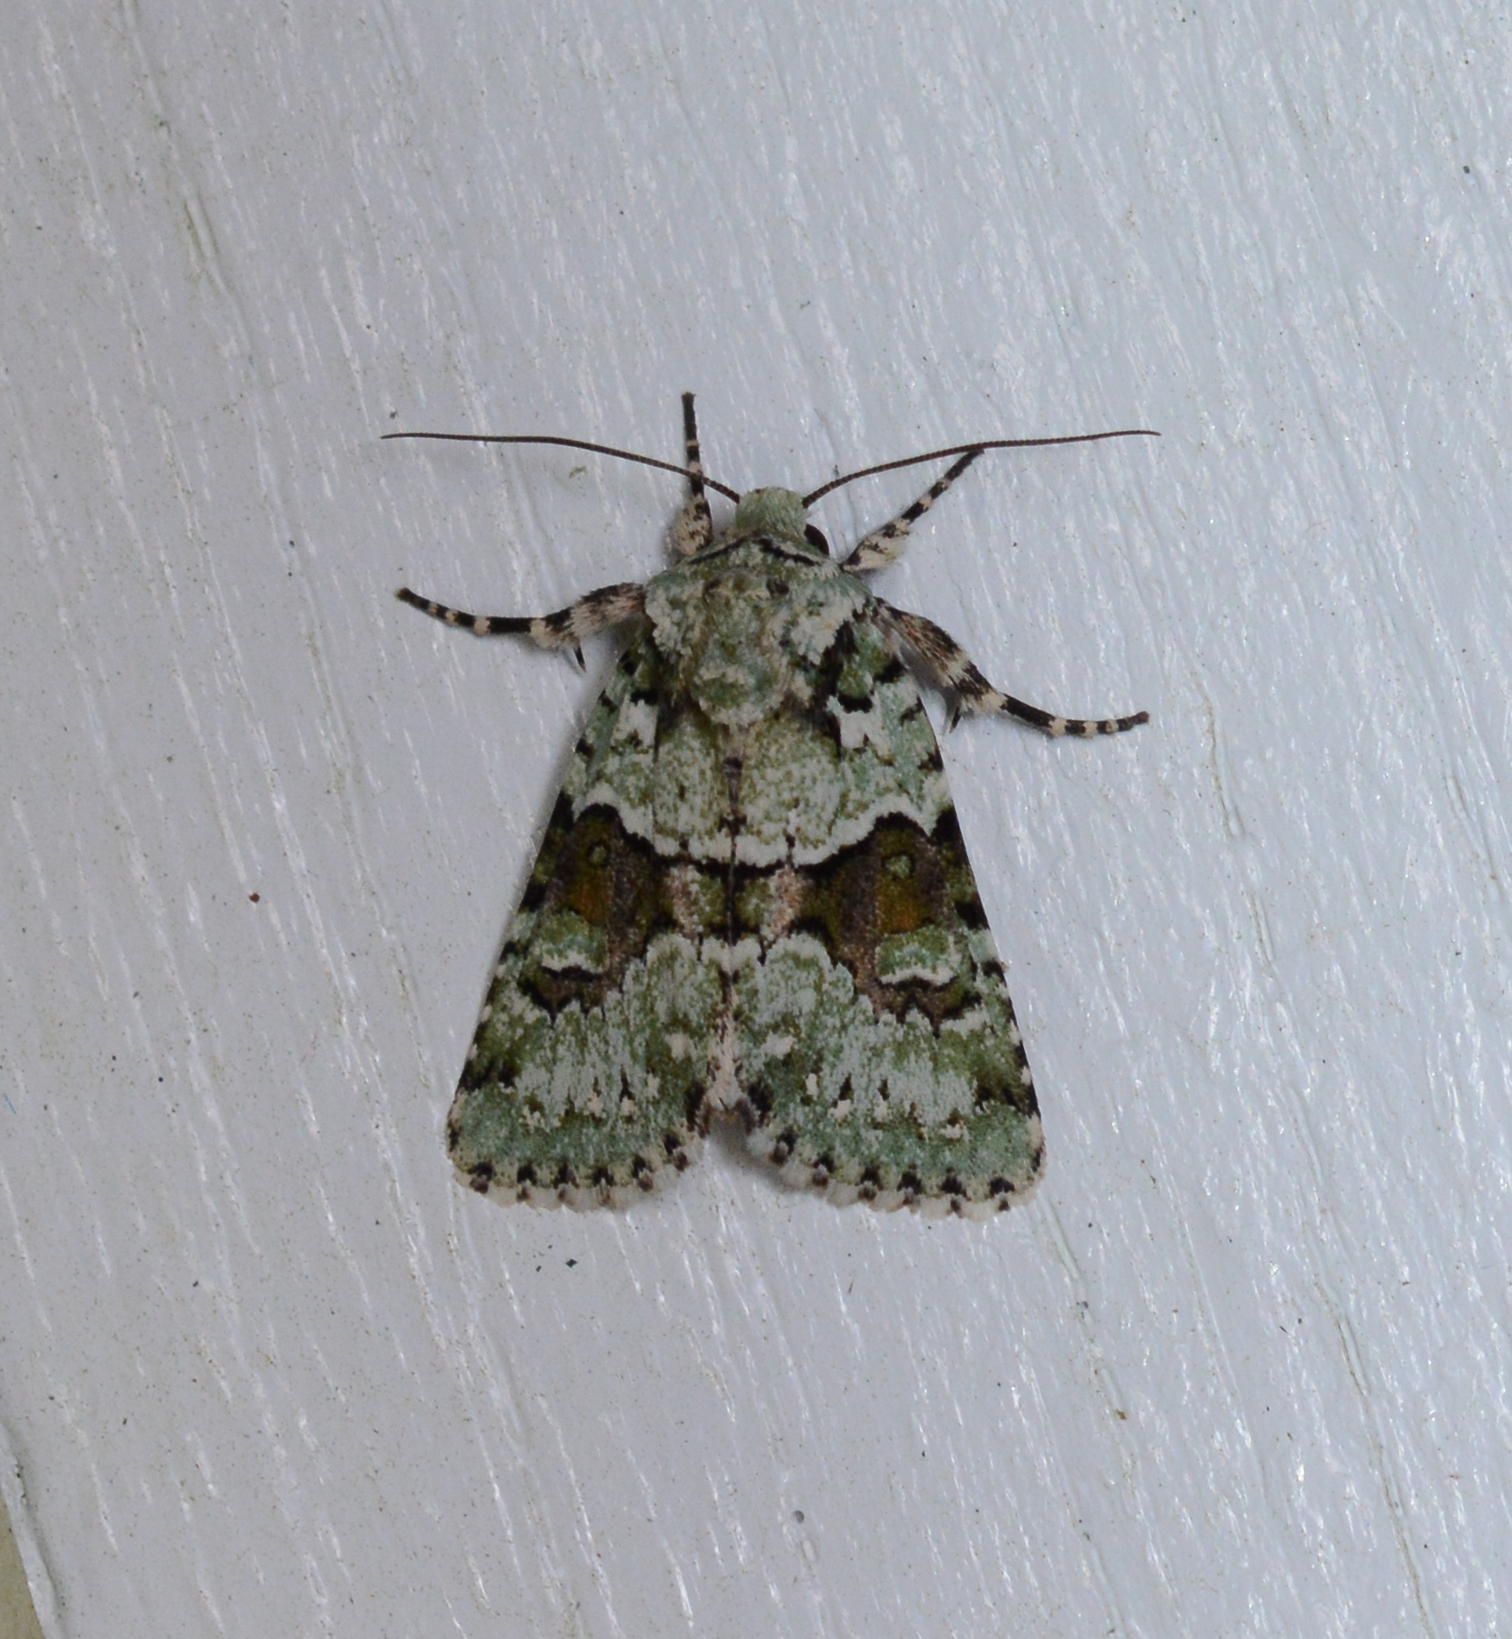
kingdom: Animalia
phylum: Arthropoda
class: Insecta
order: Lepidoptera
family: Noctuidae
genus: Lacinipolia
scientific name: Lacinipolia laudabilis
